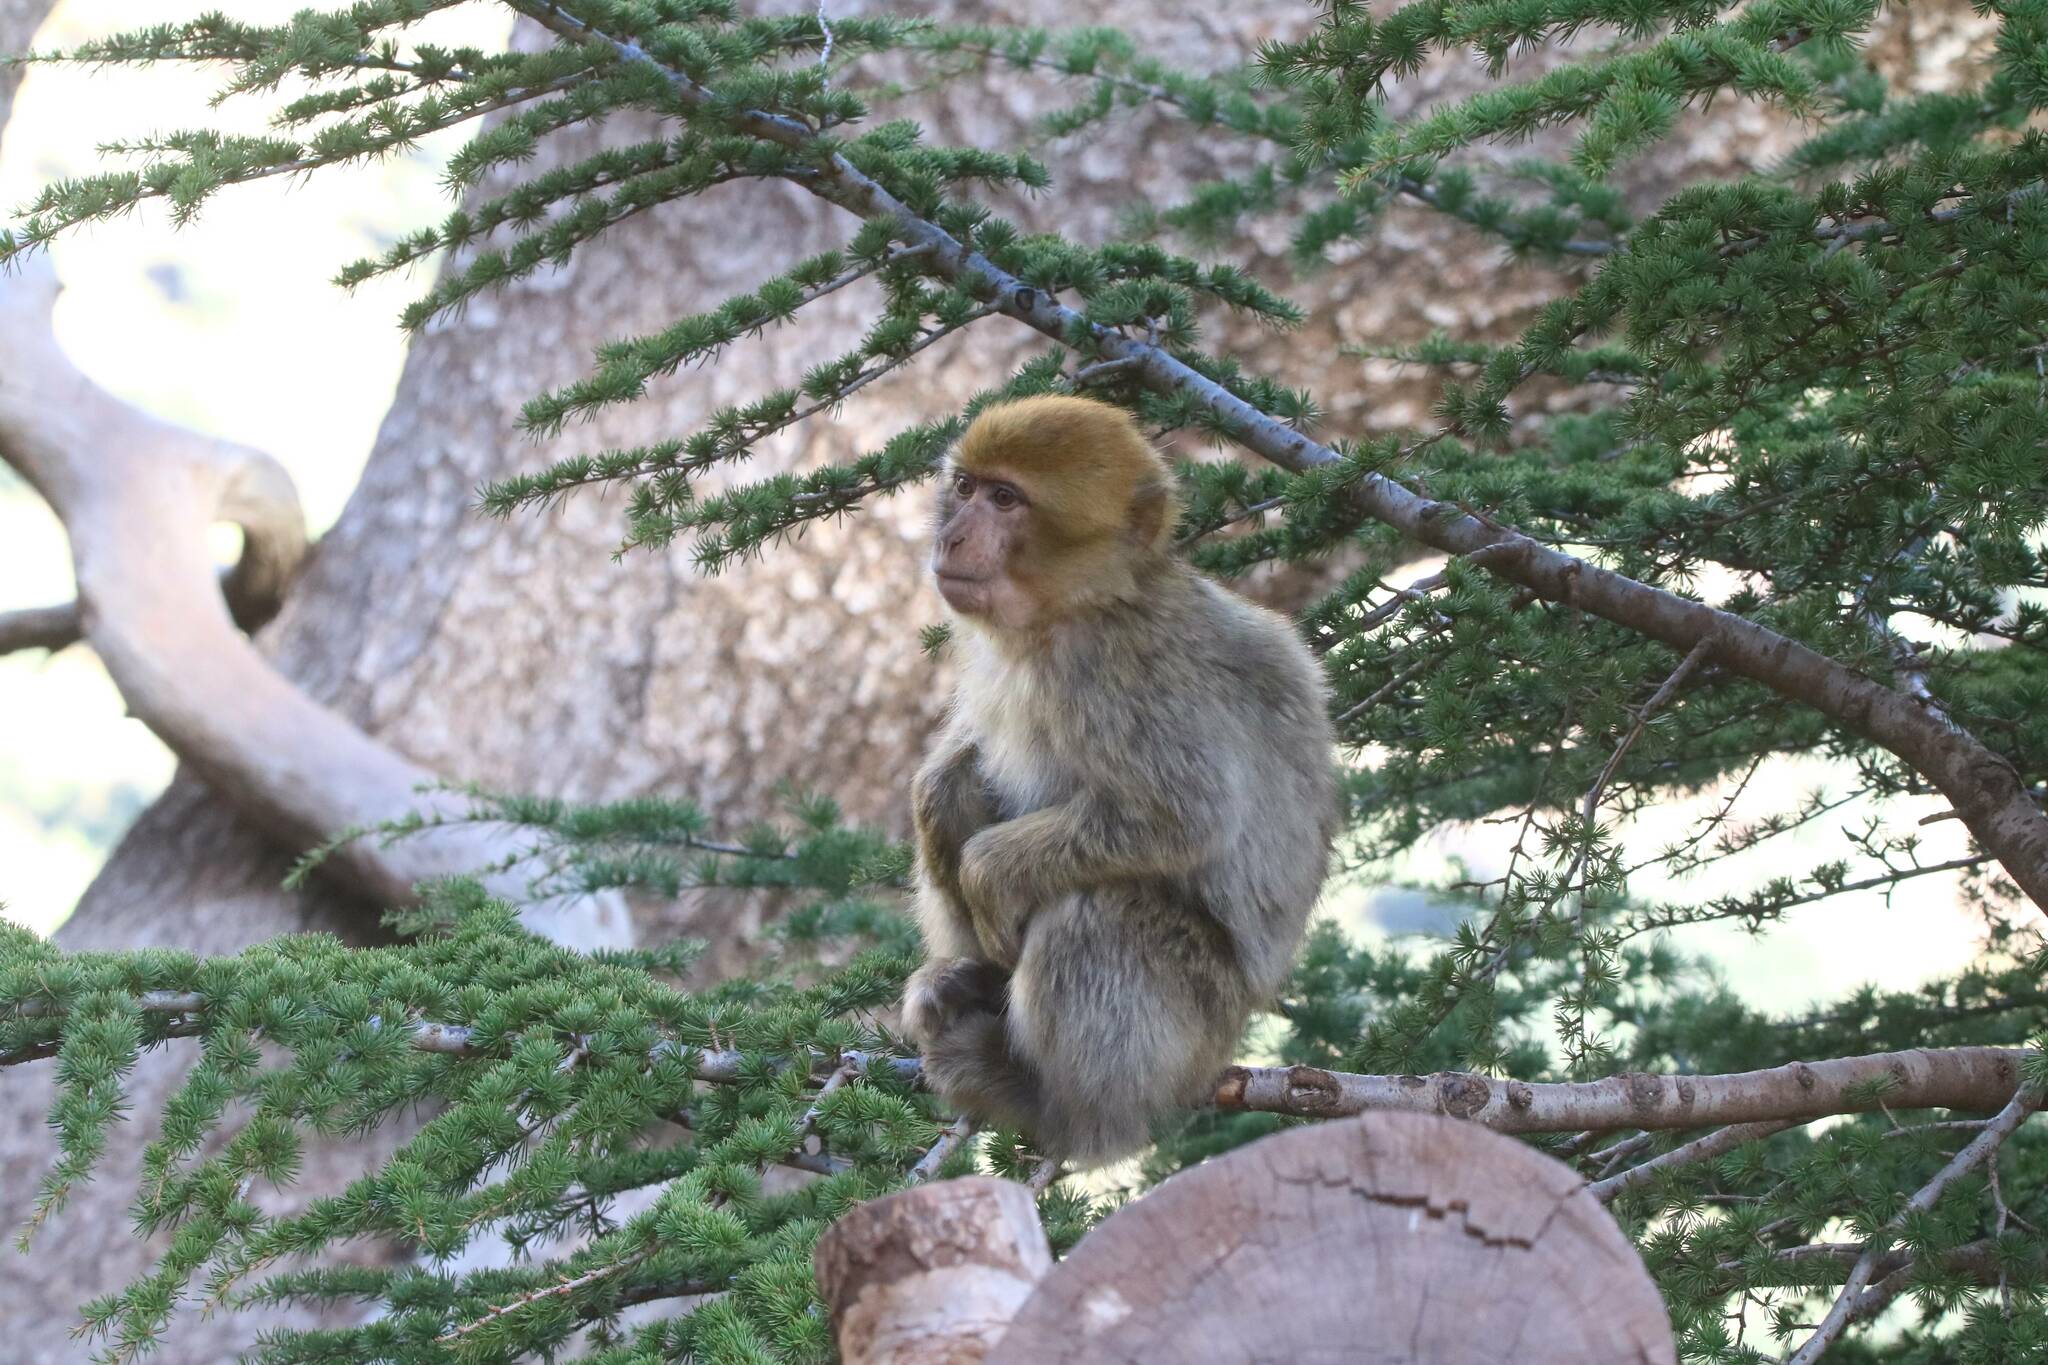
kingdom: Animalia
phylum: Chordata
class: Mammalia
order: Primates
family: Cercopithecidae
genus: Macaca
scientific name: Macaca sylvanus
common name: Barbary macaque
